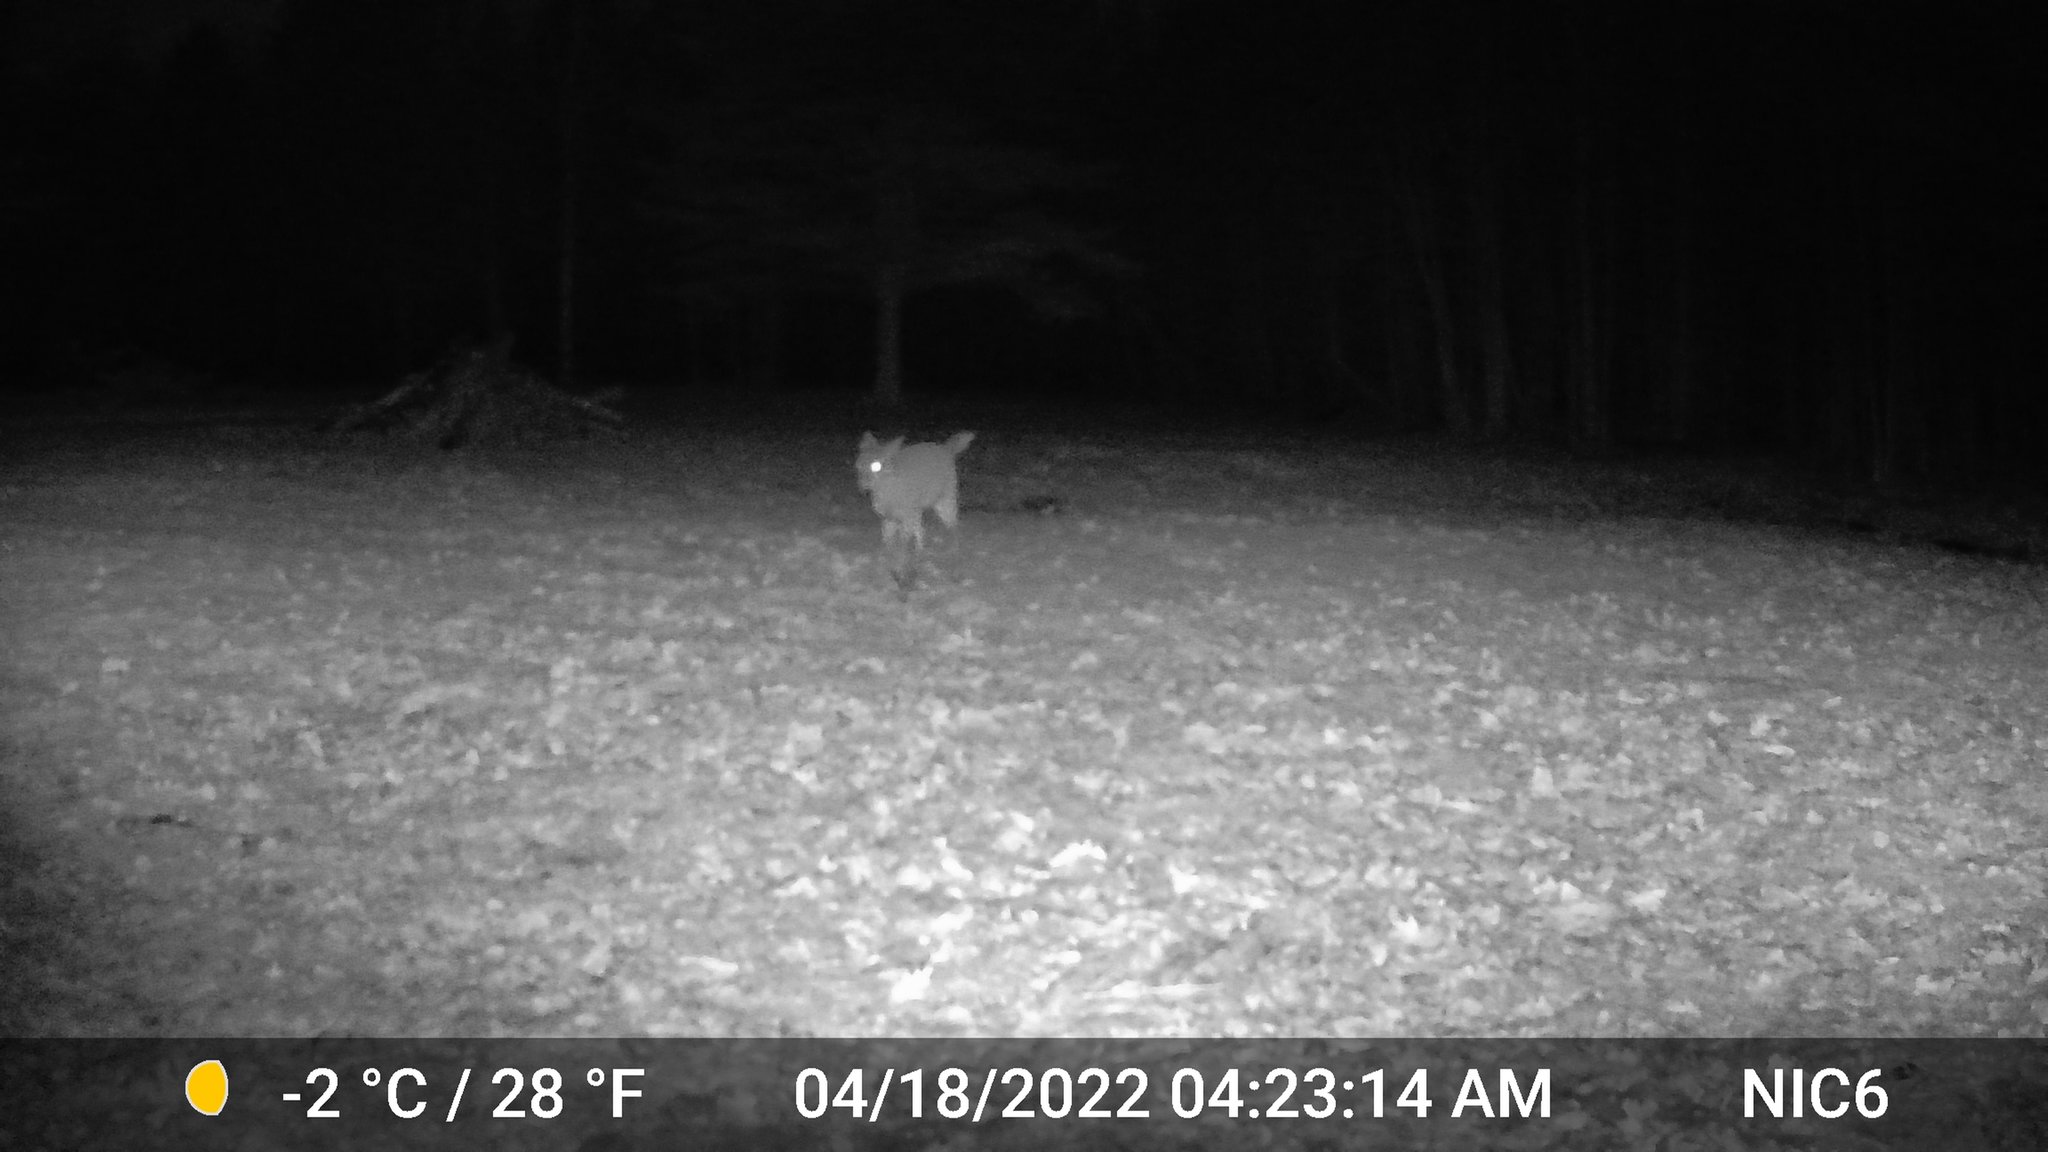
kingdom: Animalia
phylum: Chordata
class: Mammalia
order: Artiodactyla
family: Cervidae
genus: Odocoileus
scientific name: Odocoileus virginianus
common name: White-tailed deer
